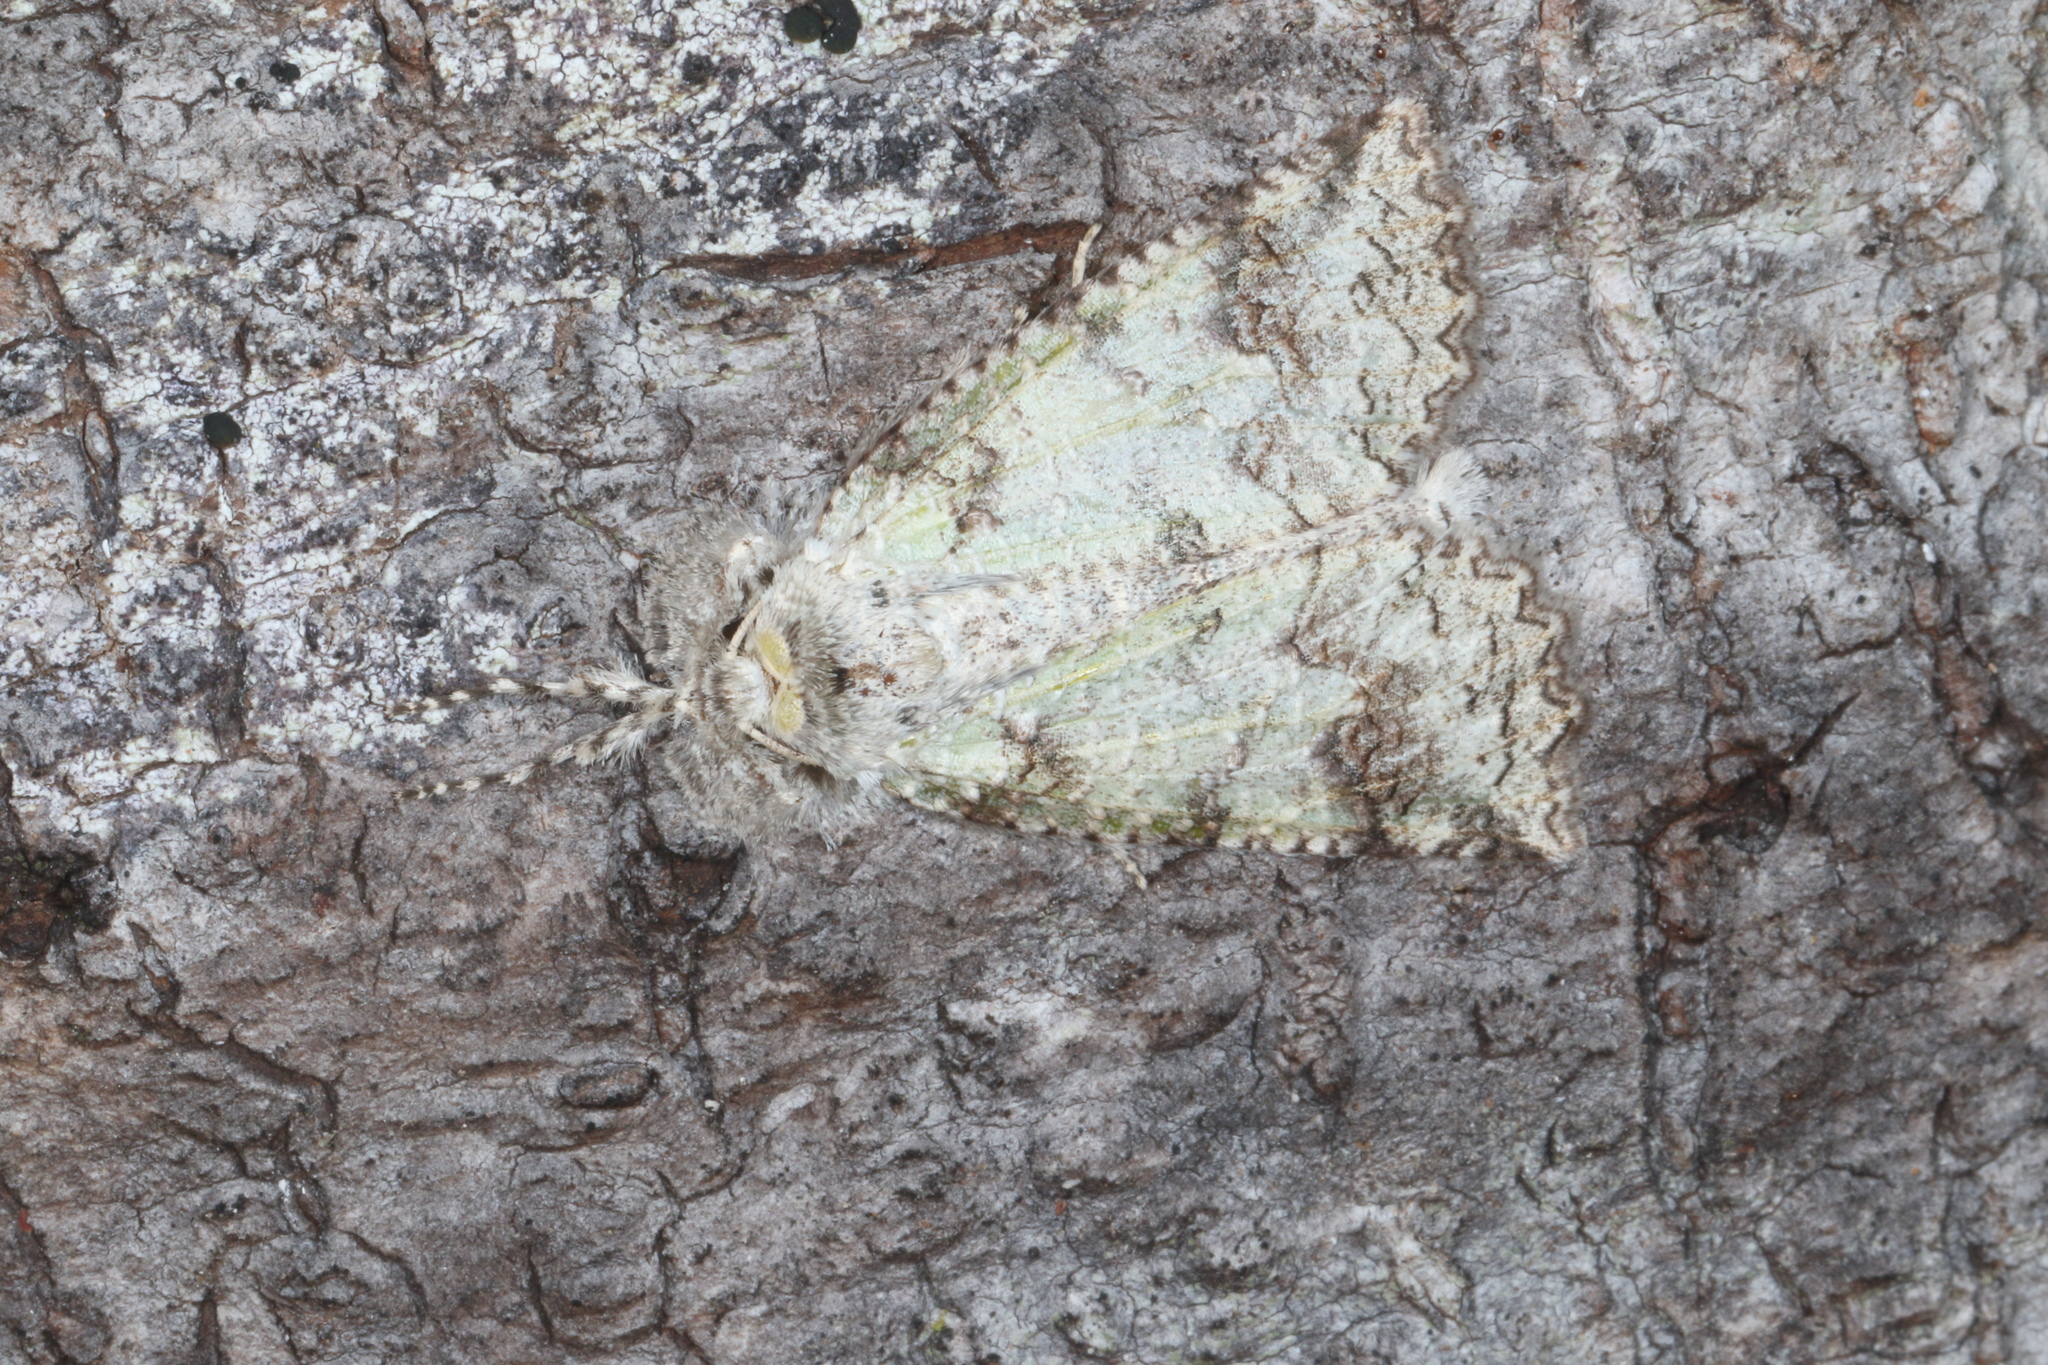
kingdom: Animalia
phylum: Arthropoda
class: Insecta
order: Lepidoptera
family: Geometridae
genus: Declana
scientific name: Declana floccosa
